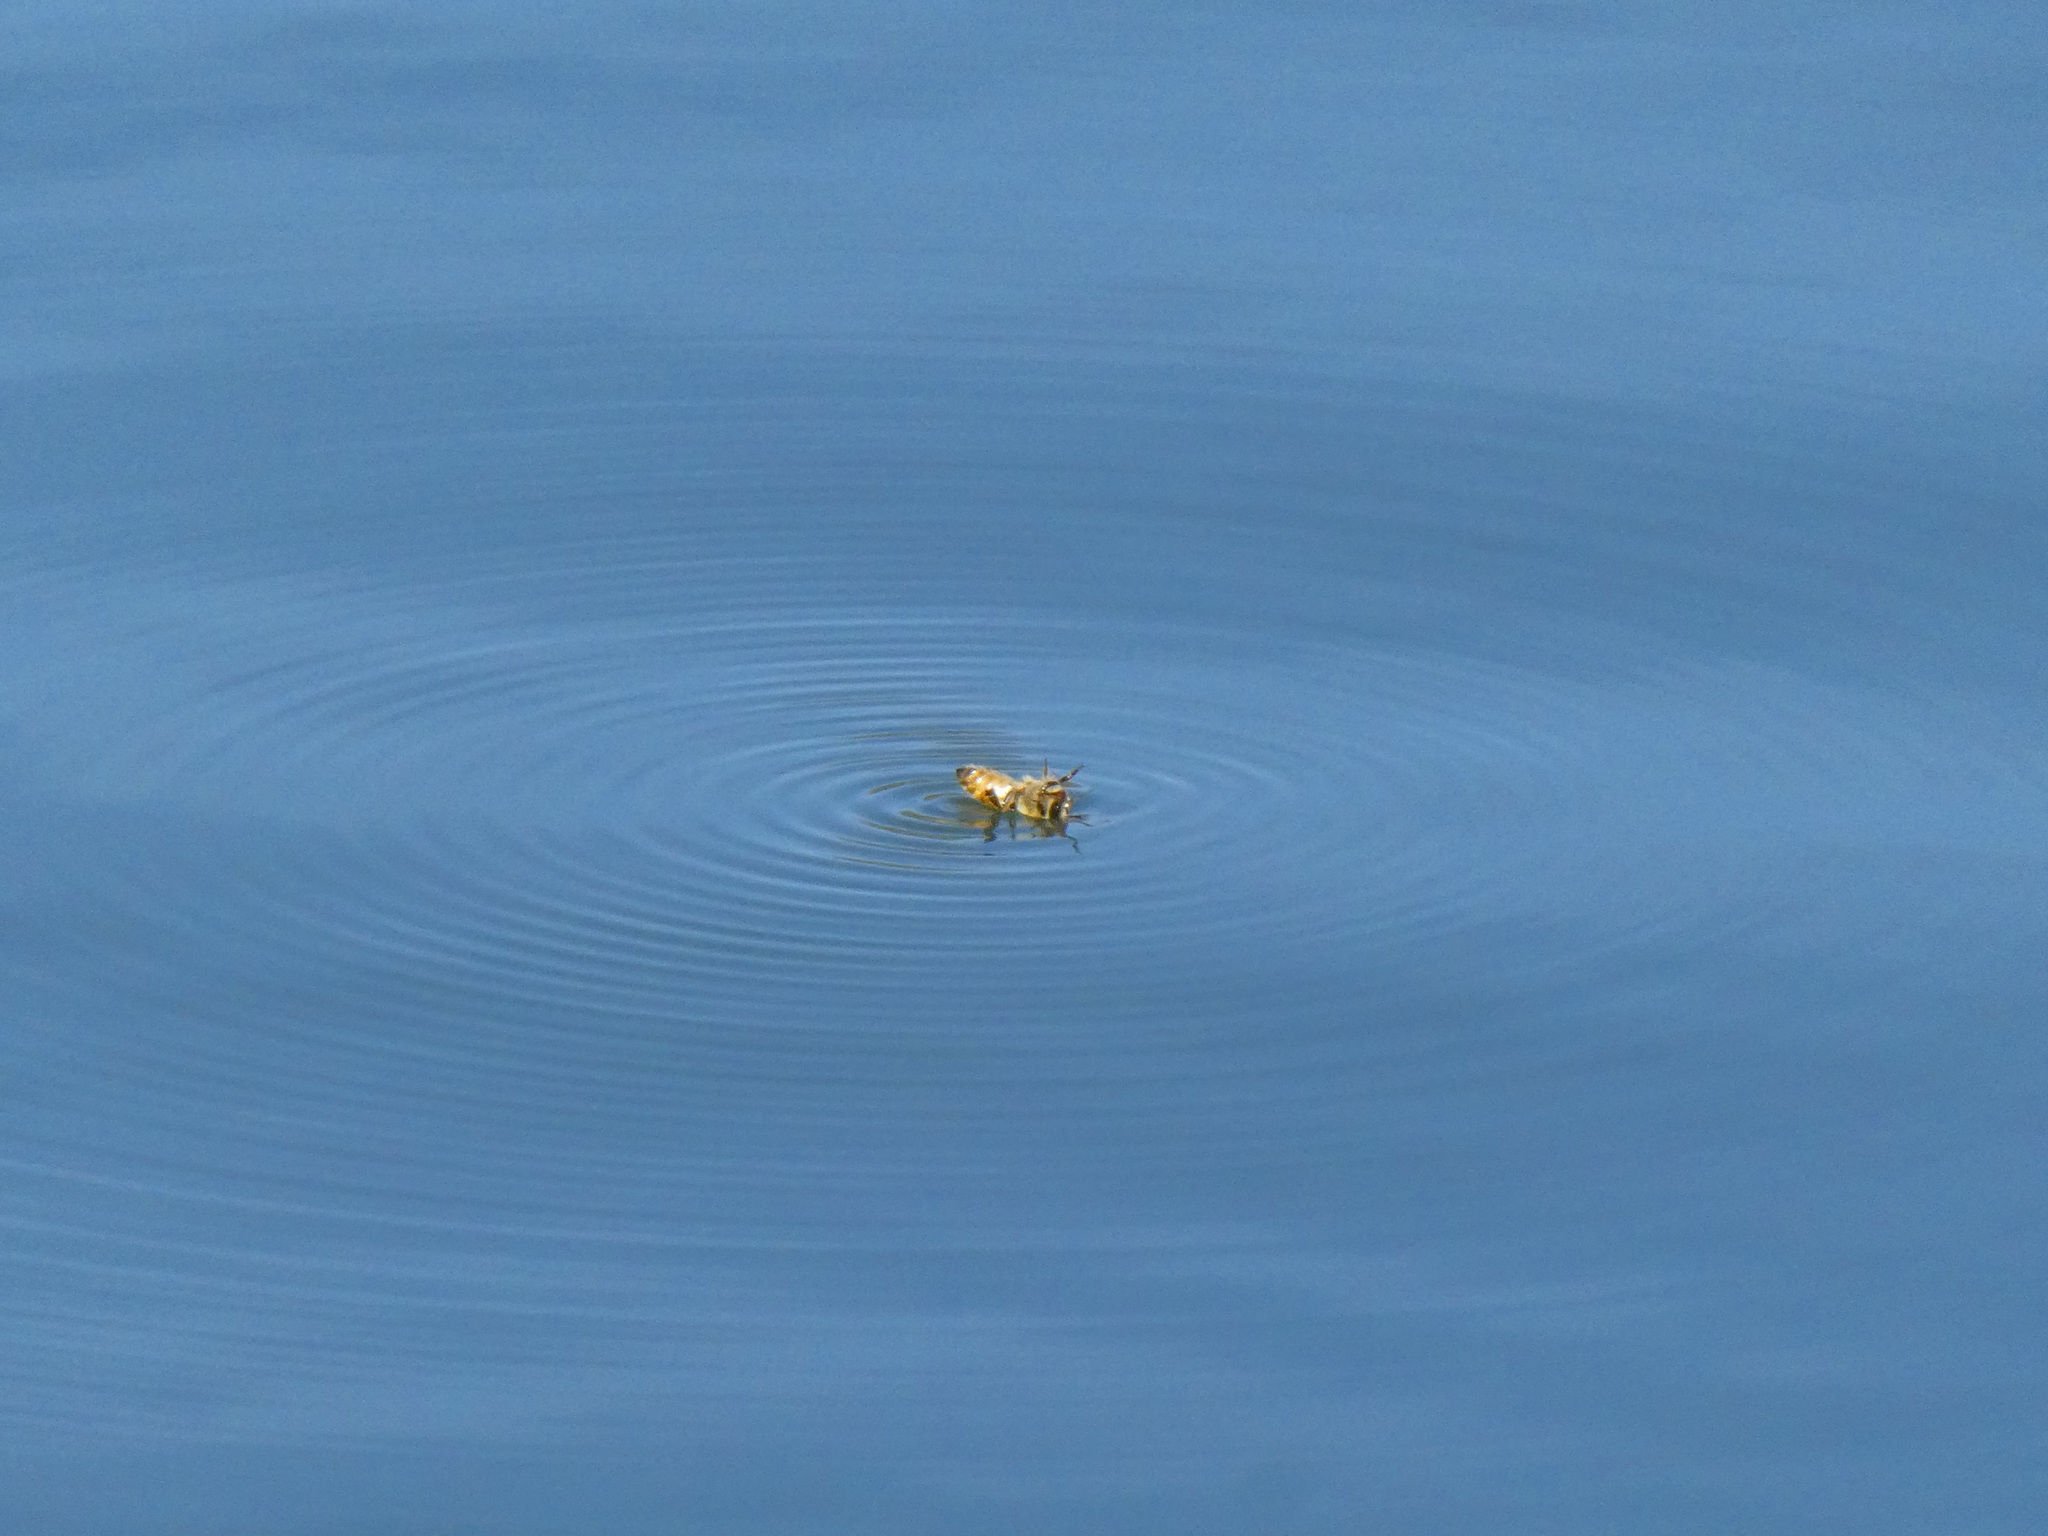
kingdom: Animalia
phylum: Arthropoda
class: Insecta
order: Hymenoptera
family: Apidae
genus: Apis
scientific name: Apis mellifera
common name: Honey bee
